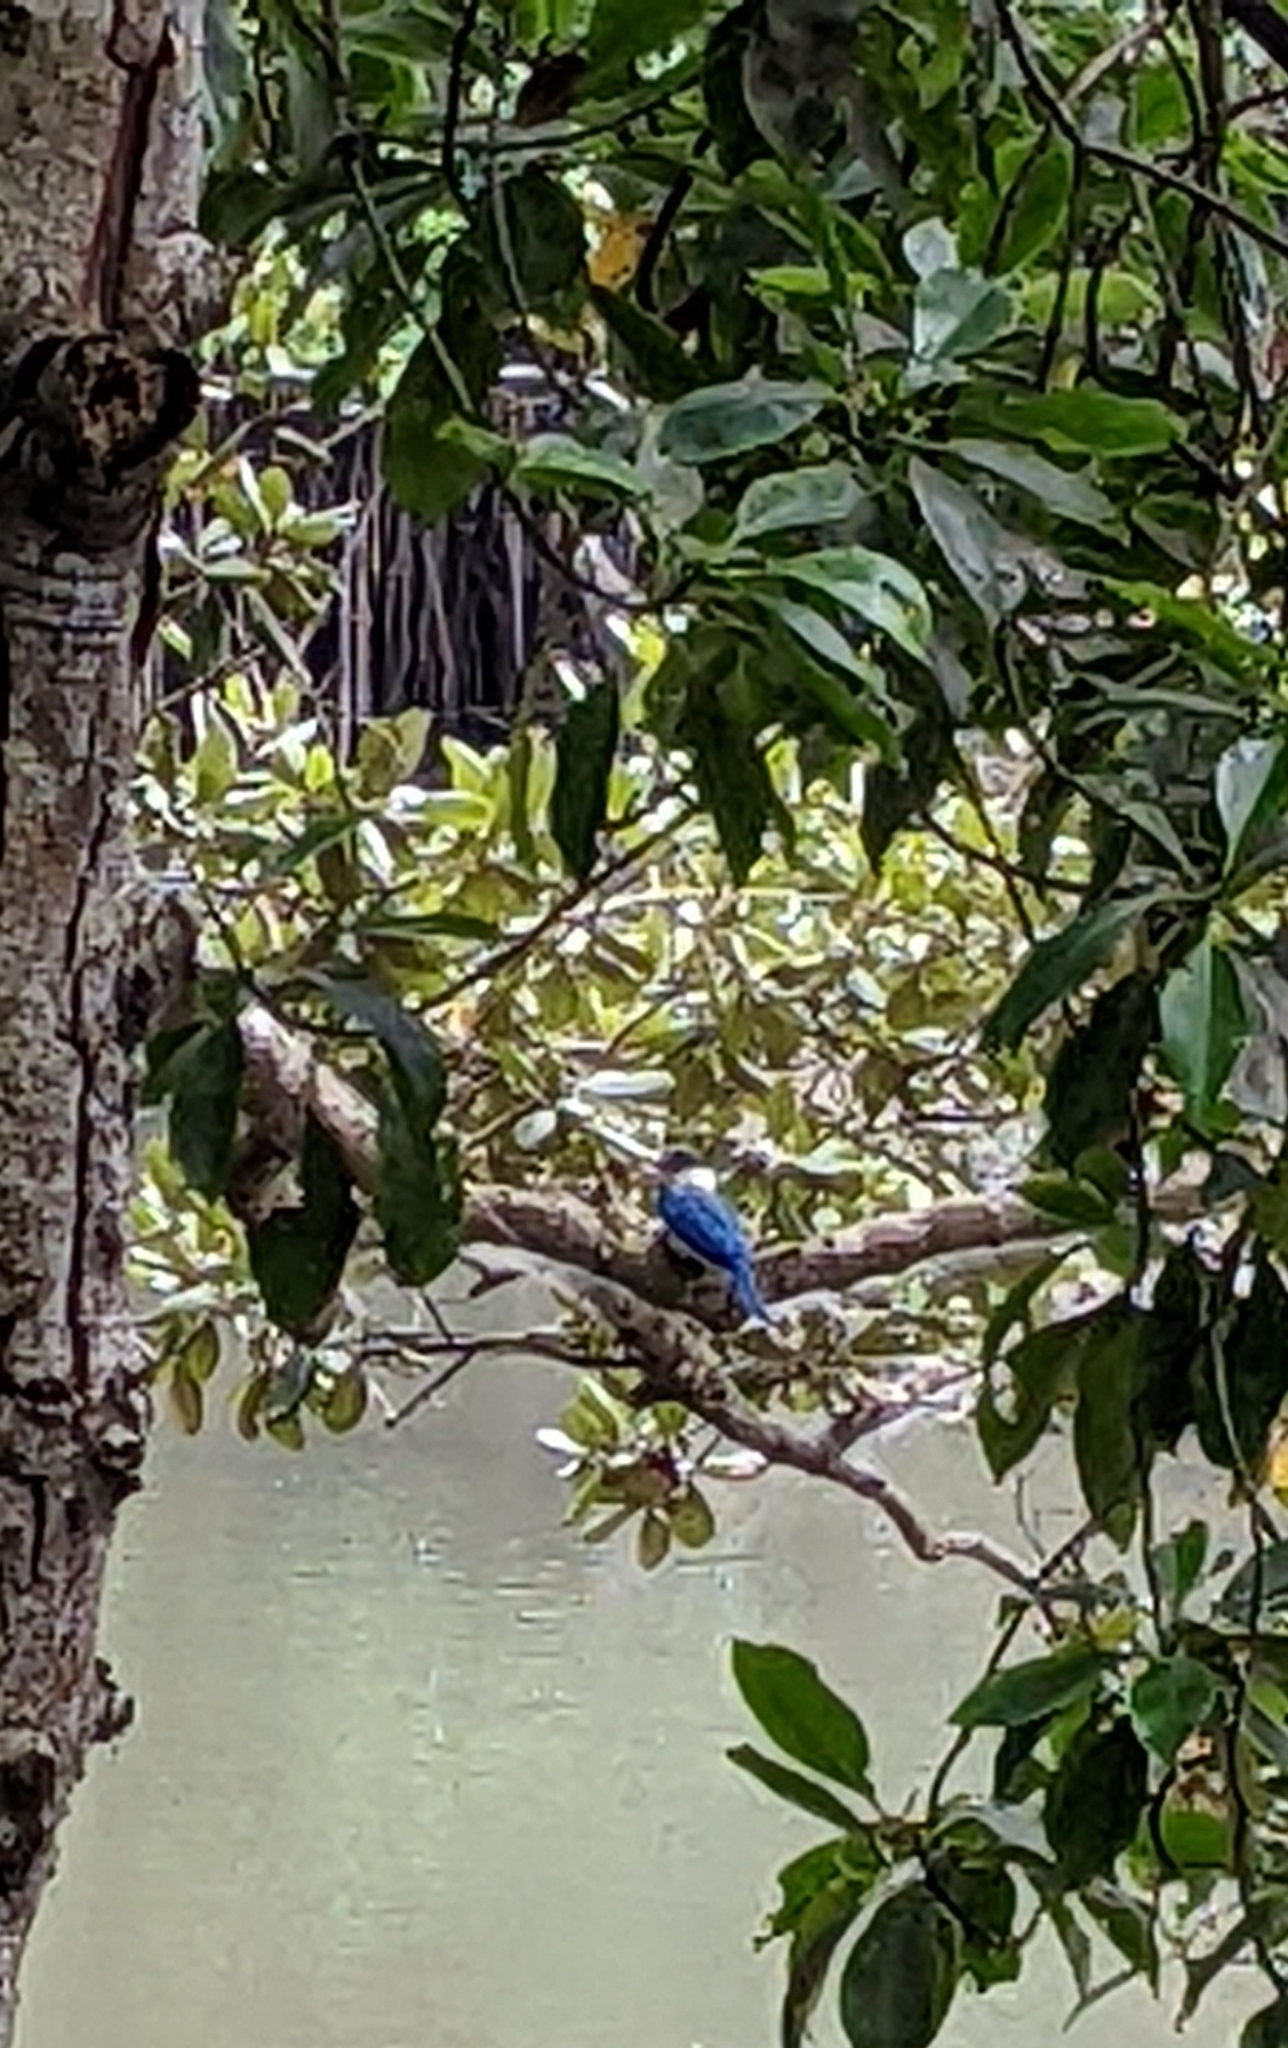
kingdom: Animalia
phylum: Chordata
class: Aves
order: Coraciiformes
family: Alcedinidae
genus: Todiramphus
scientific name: Todiramphus chloris
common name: Collared kingfisher
